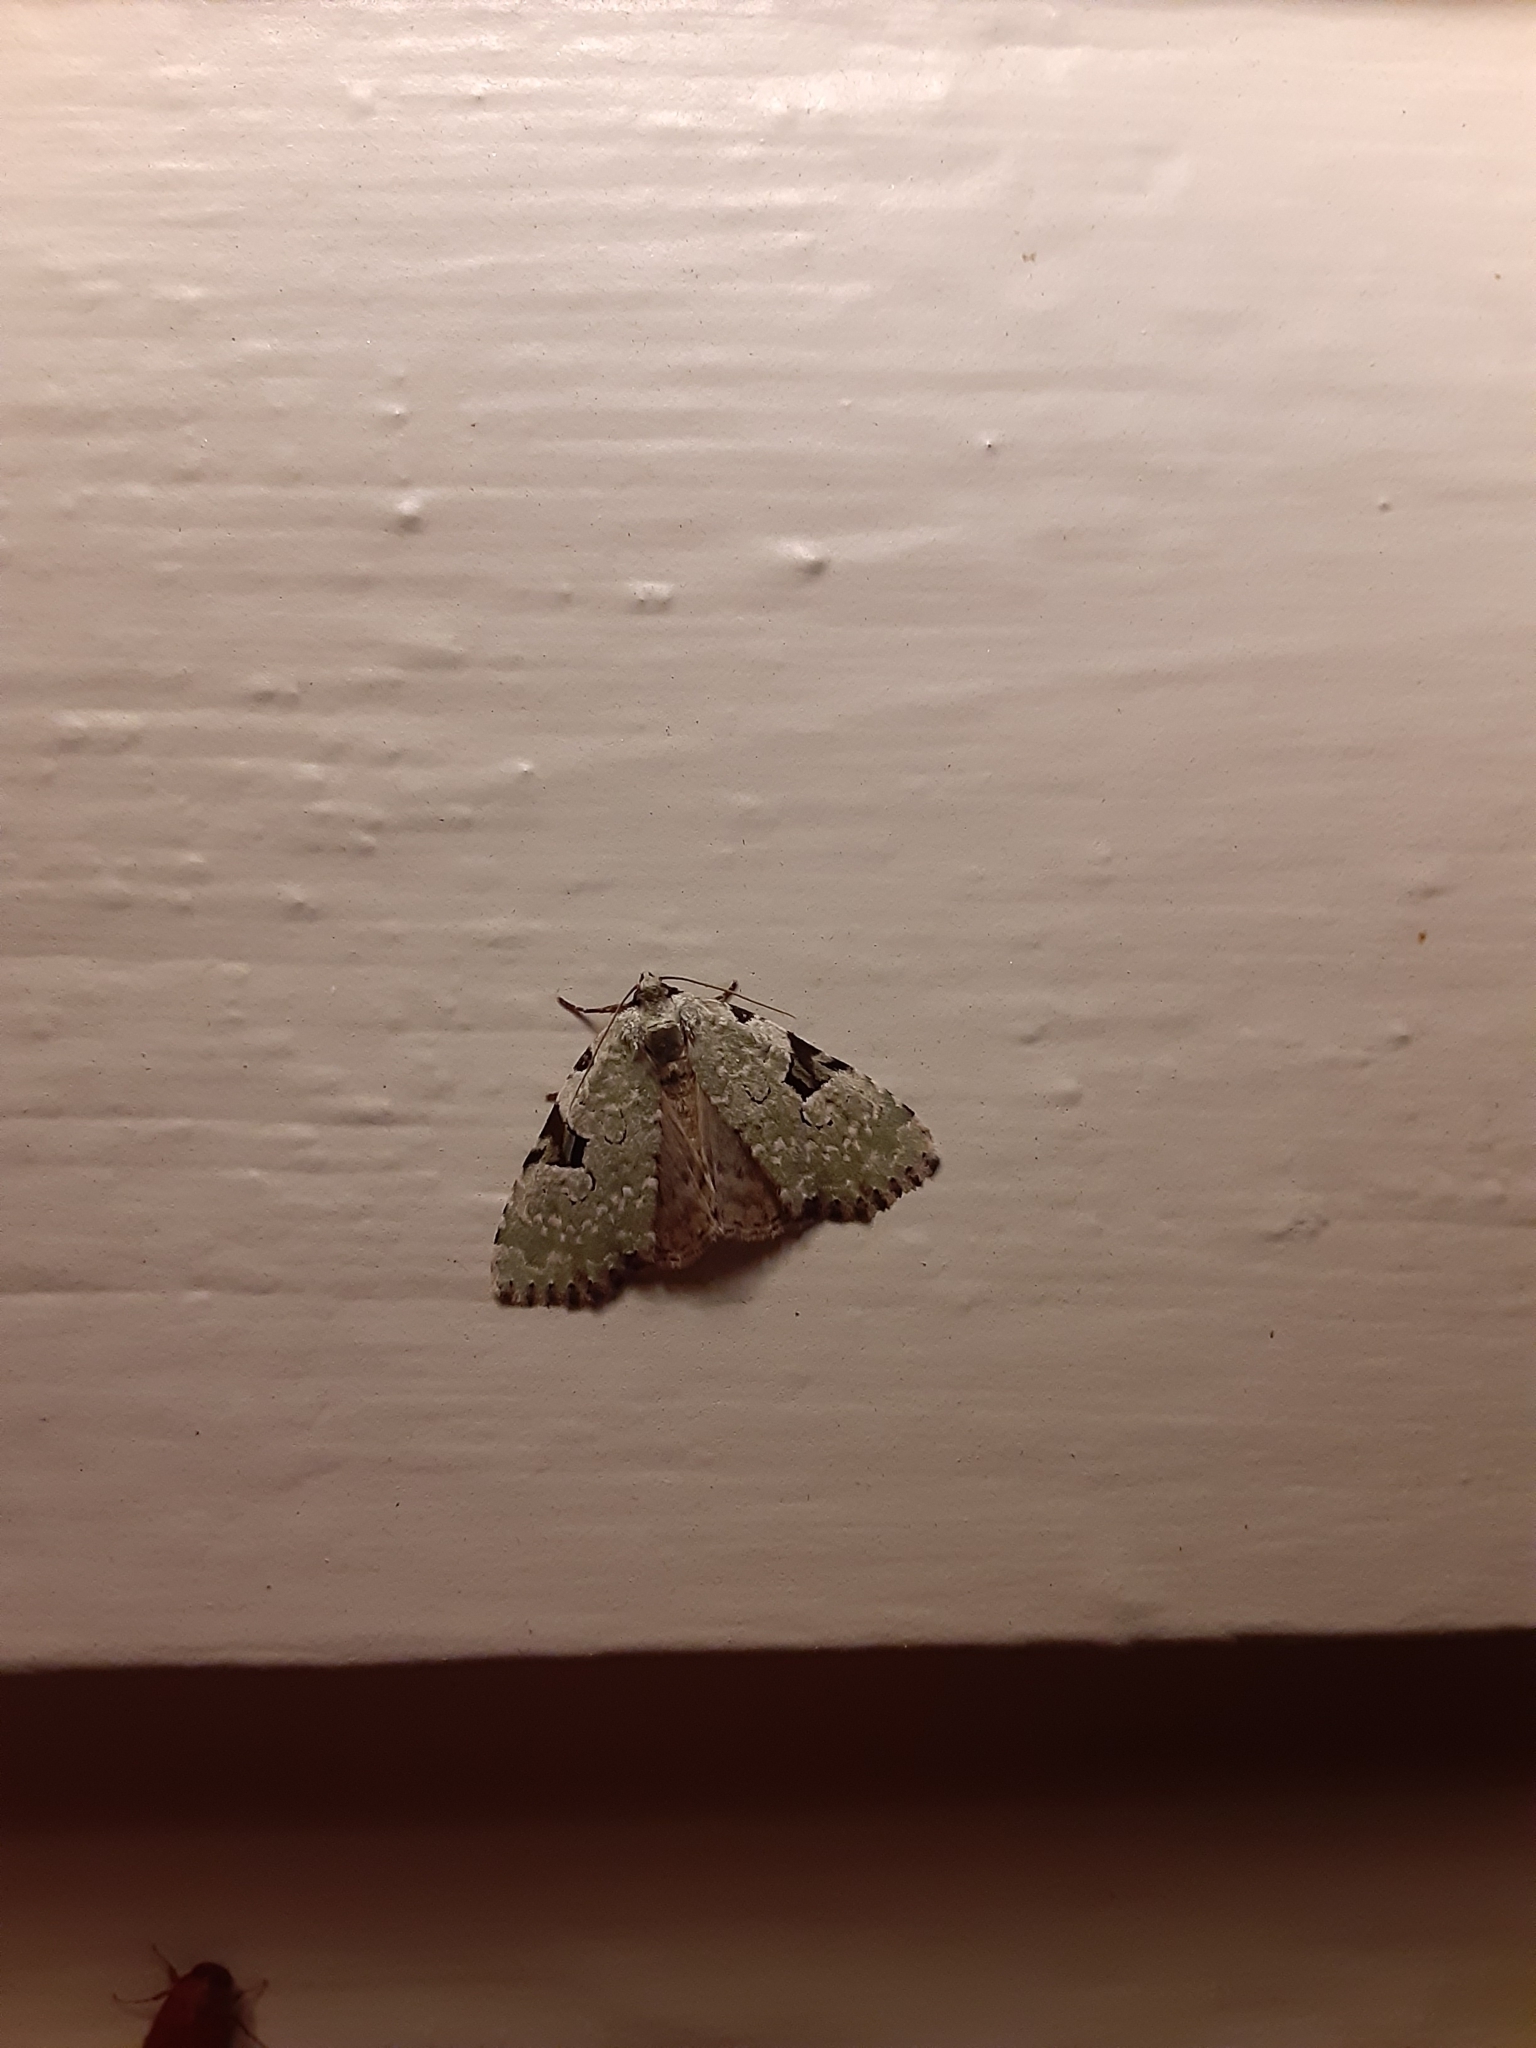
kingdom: Animalia
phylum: Arthropoda
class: Insecta
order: Lepidoptera
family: Noctuidae
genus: Leuconycta
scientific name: Leuconycta diphteroides
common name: Green leuconycta moth
